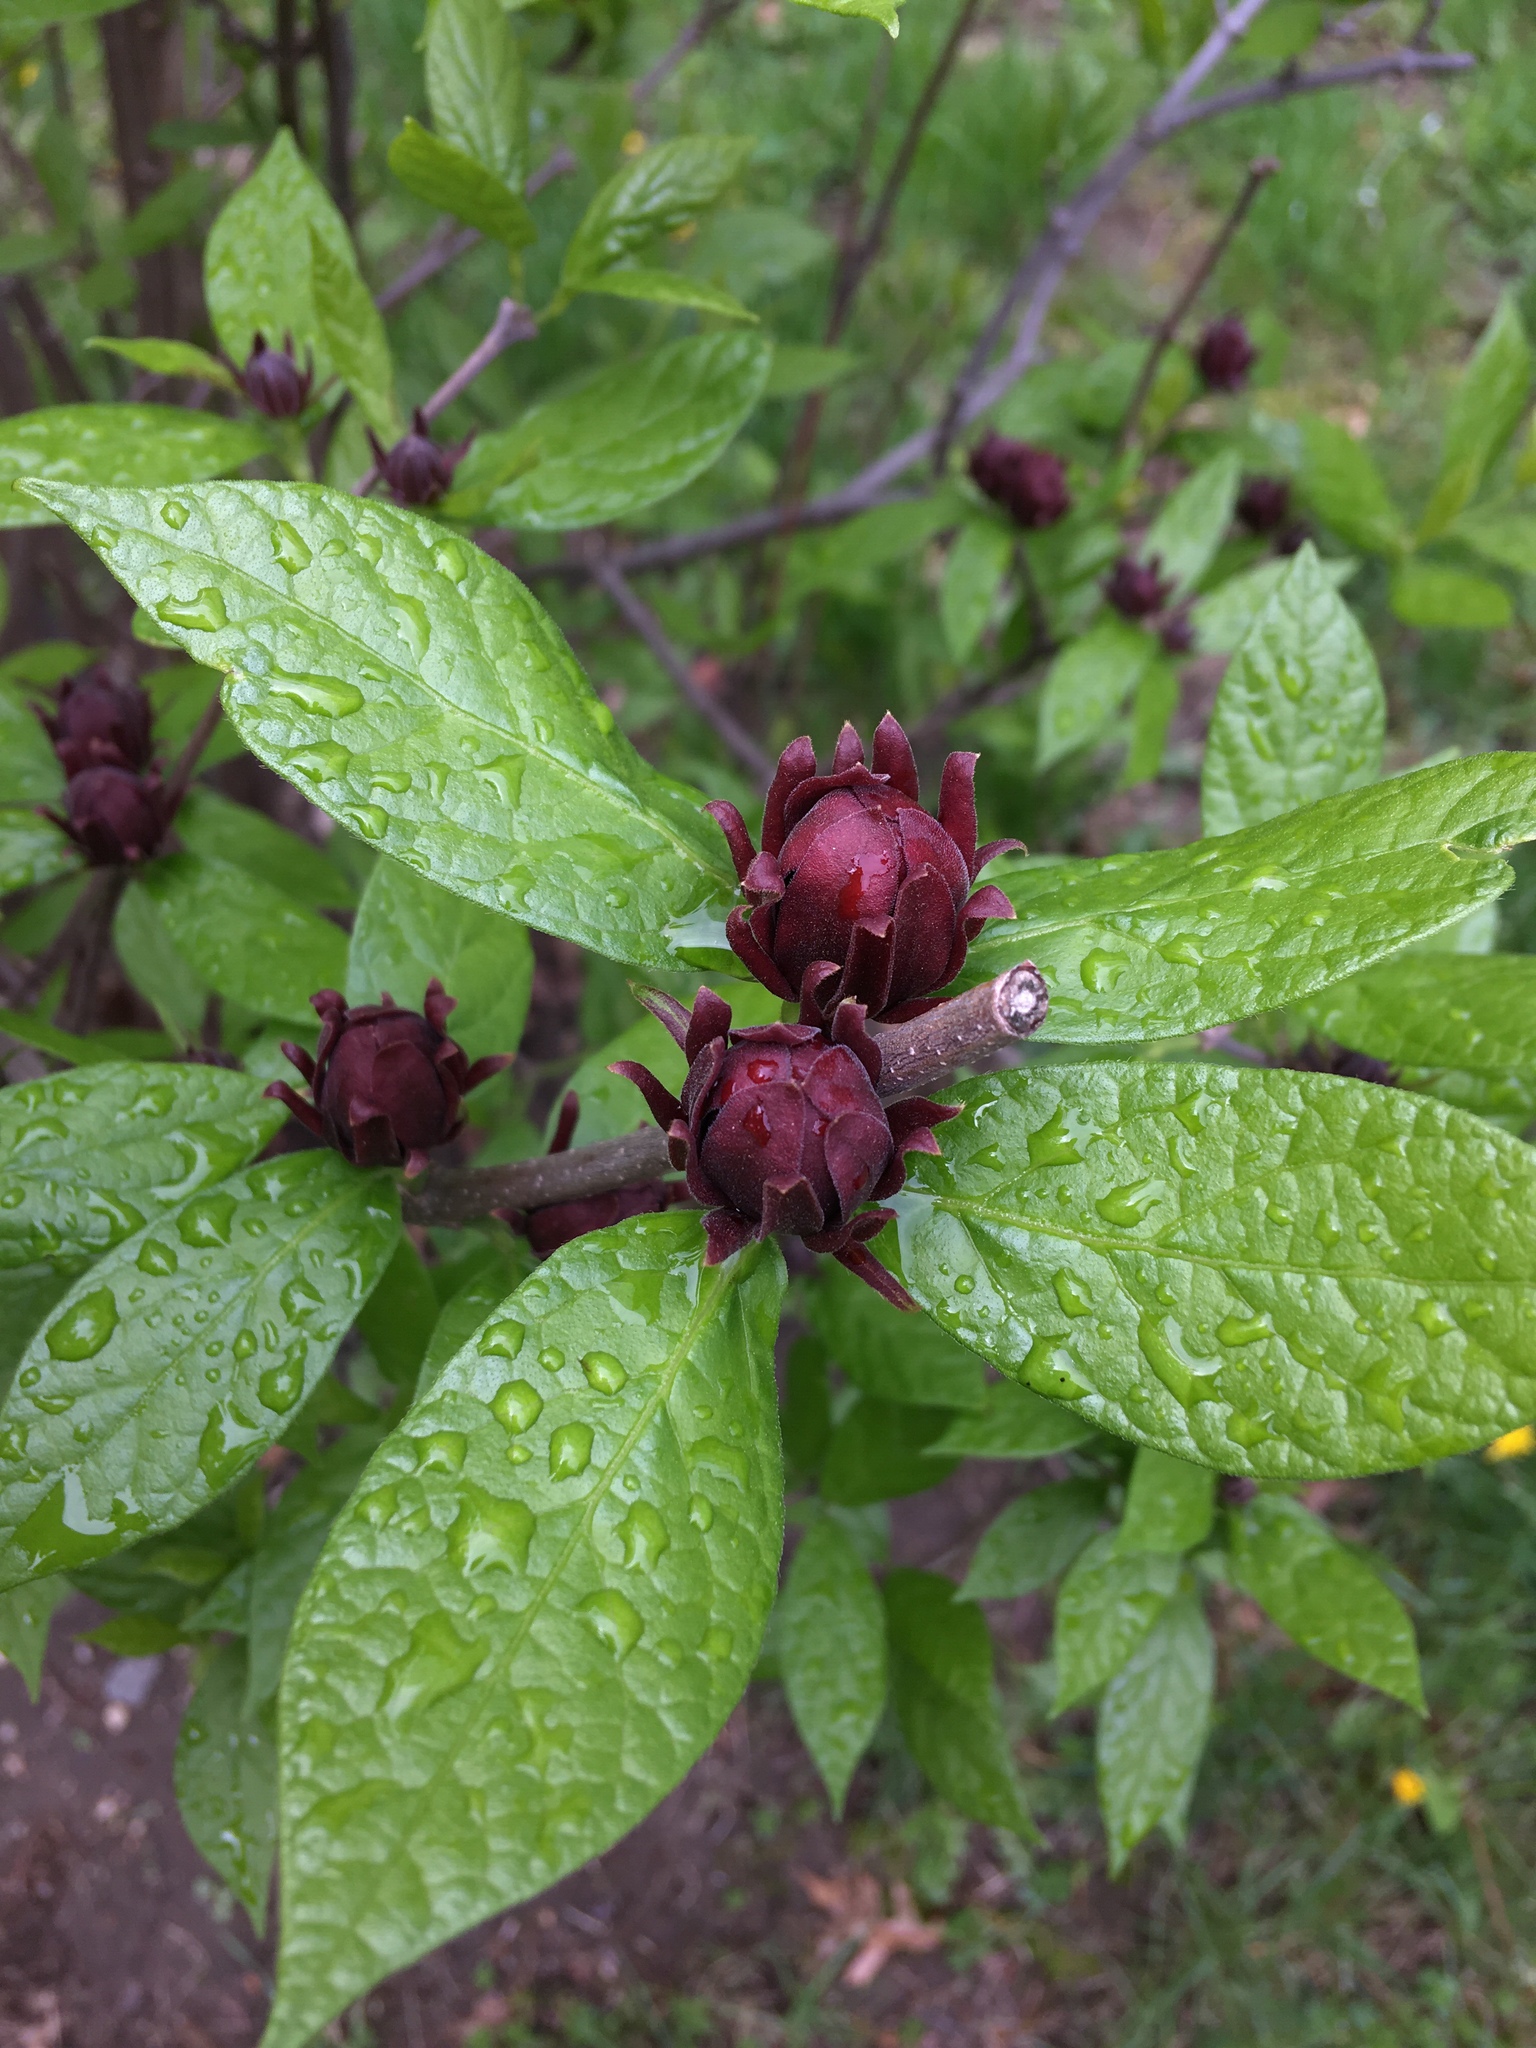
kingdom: Plantae
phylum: Tracheophyta
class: Magnoliopsida
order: Laurales
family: Calycanthaceae
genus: Calycanthus
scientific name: Calycanthus floridus
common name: Carolina-allspice
